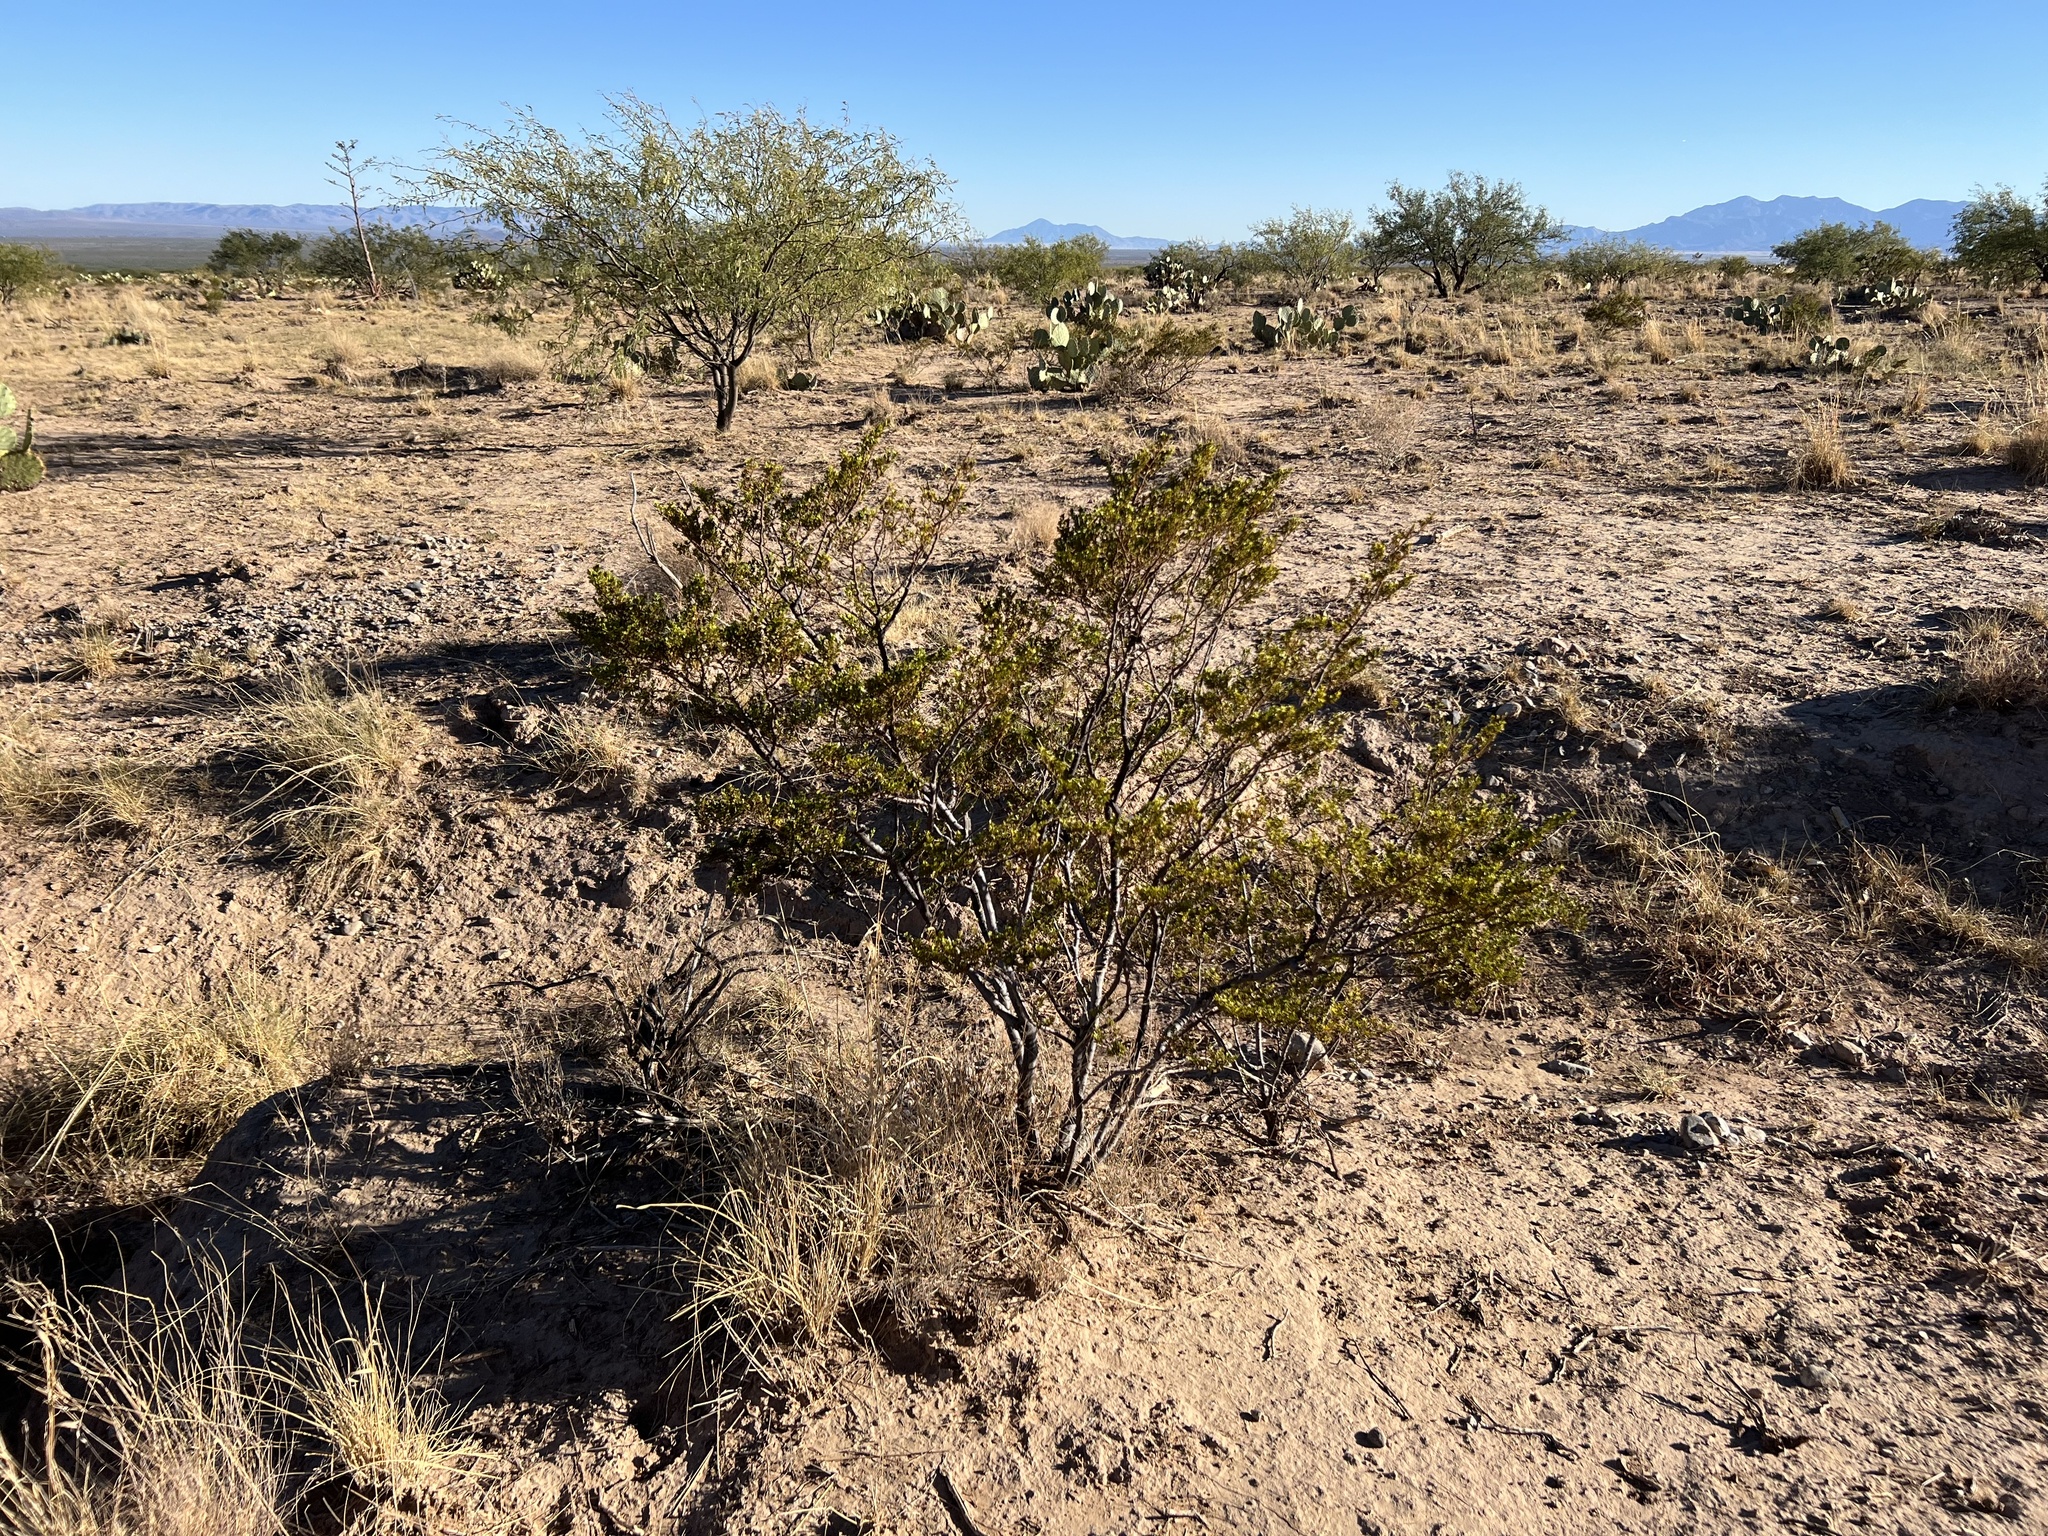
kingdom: Plantae
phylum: Tracheophyta
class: Magnoliopsida
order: Zygophyllales
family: Zygophyllaceae
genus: Larrea
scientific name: Larrea tridentata
